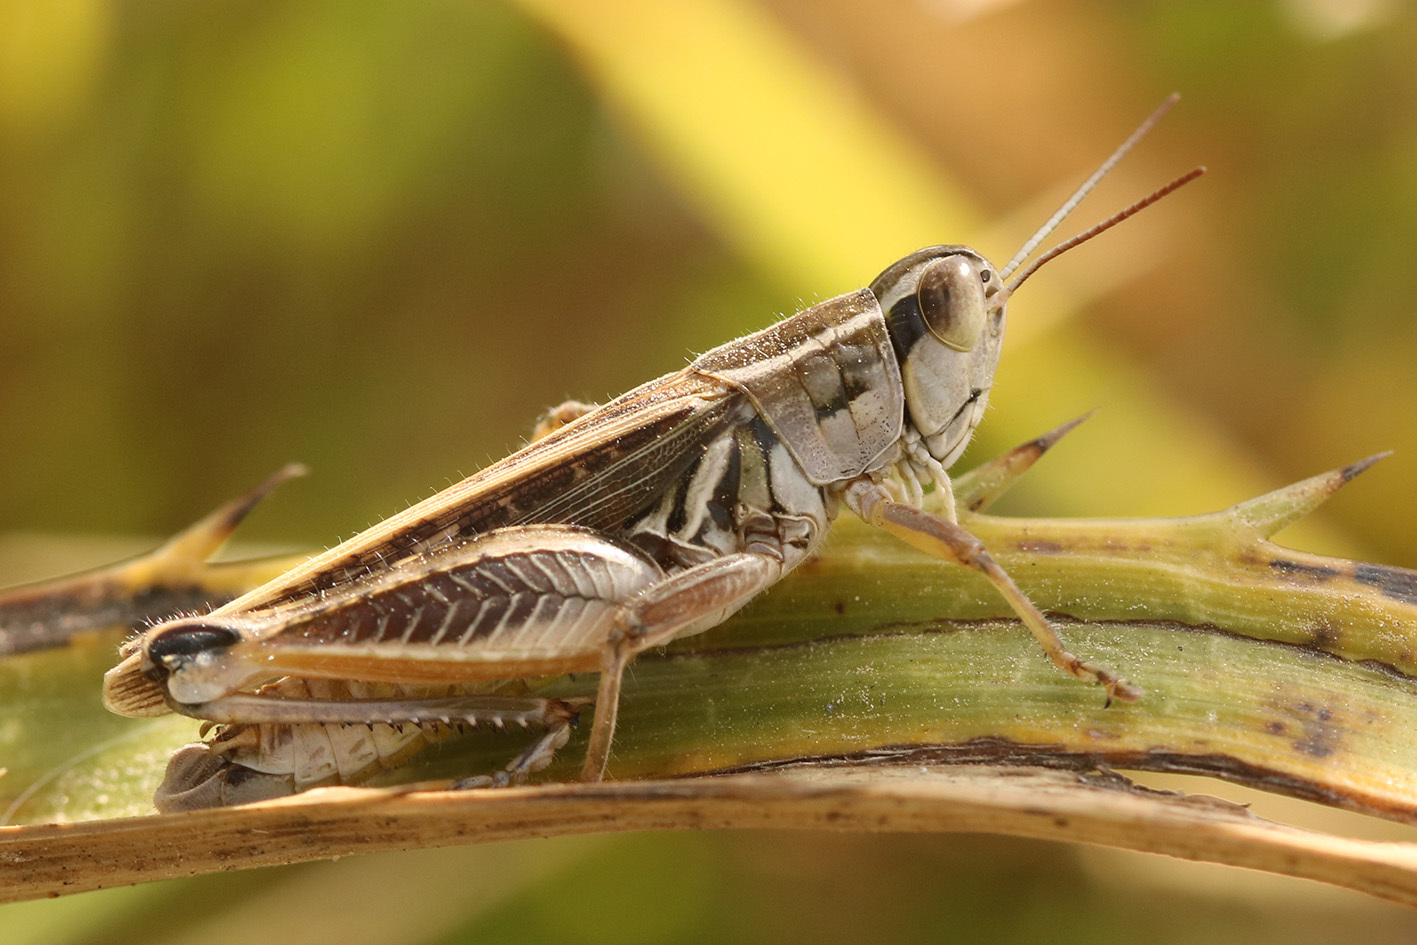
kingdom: Animalia
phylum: Arthropoda
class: Insecta
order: Orthoptera
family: Acrididae
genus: Dichroplus
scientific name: Dichroplus pratensis
